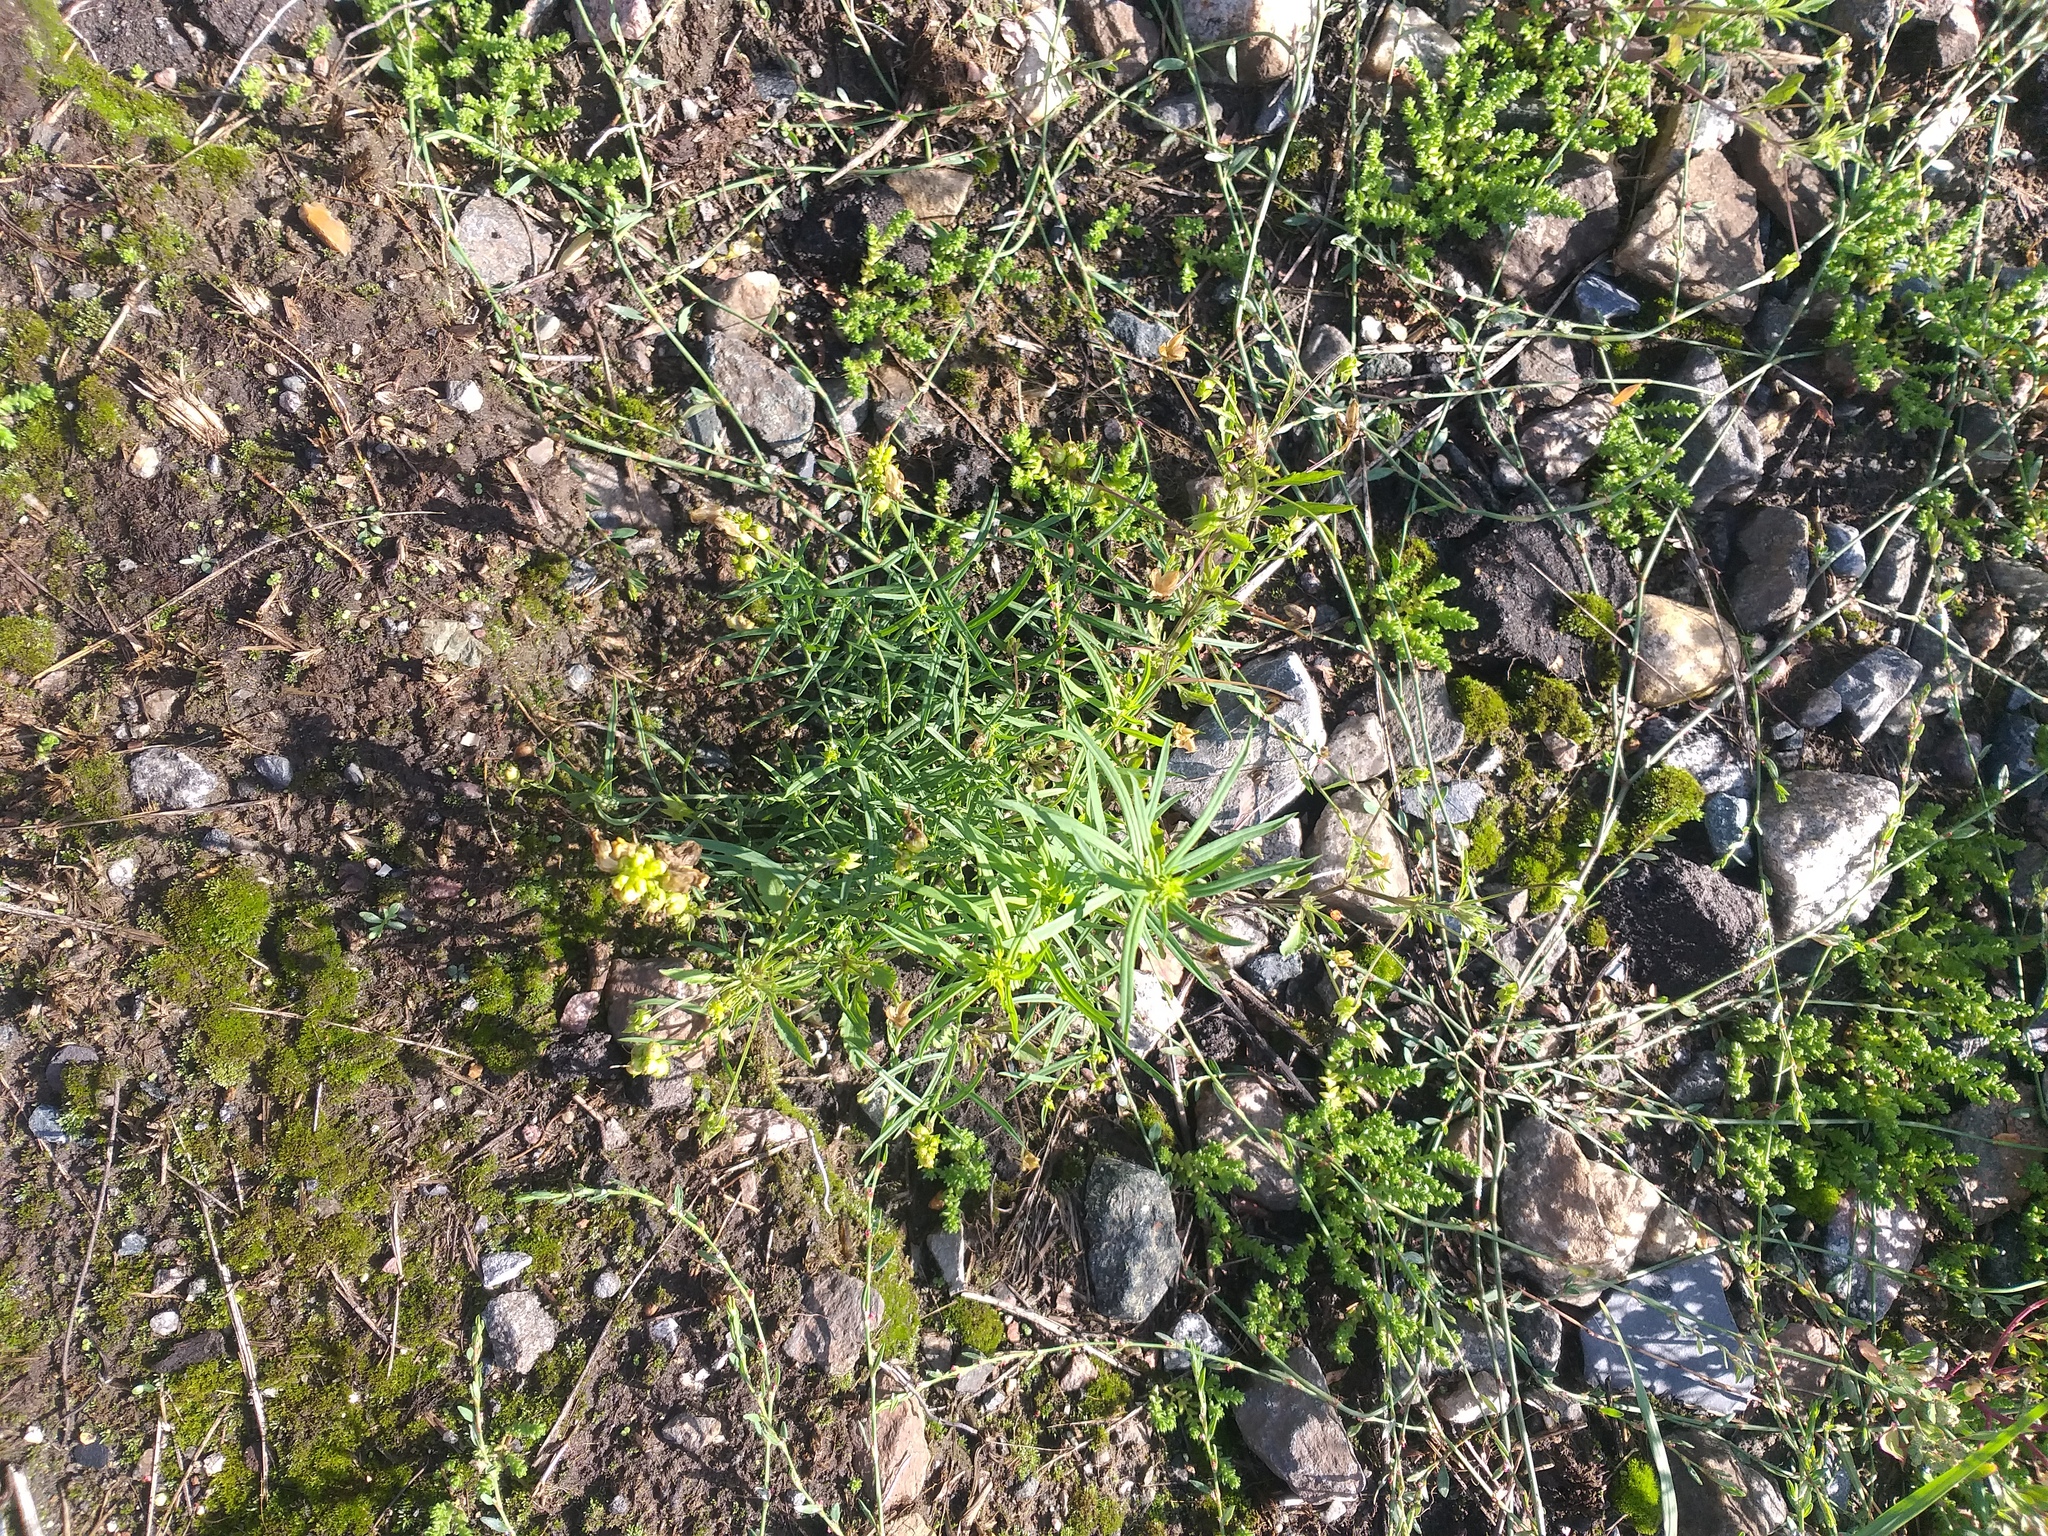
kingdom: Plantae
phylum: Tracheophyta
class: Magnoliopsida
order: Lamiales
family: Plantaginaceae
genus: Linaria
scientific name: Linaria vulgaris
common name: Butter and eggs
